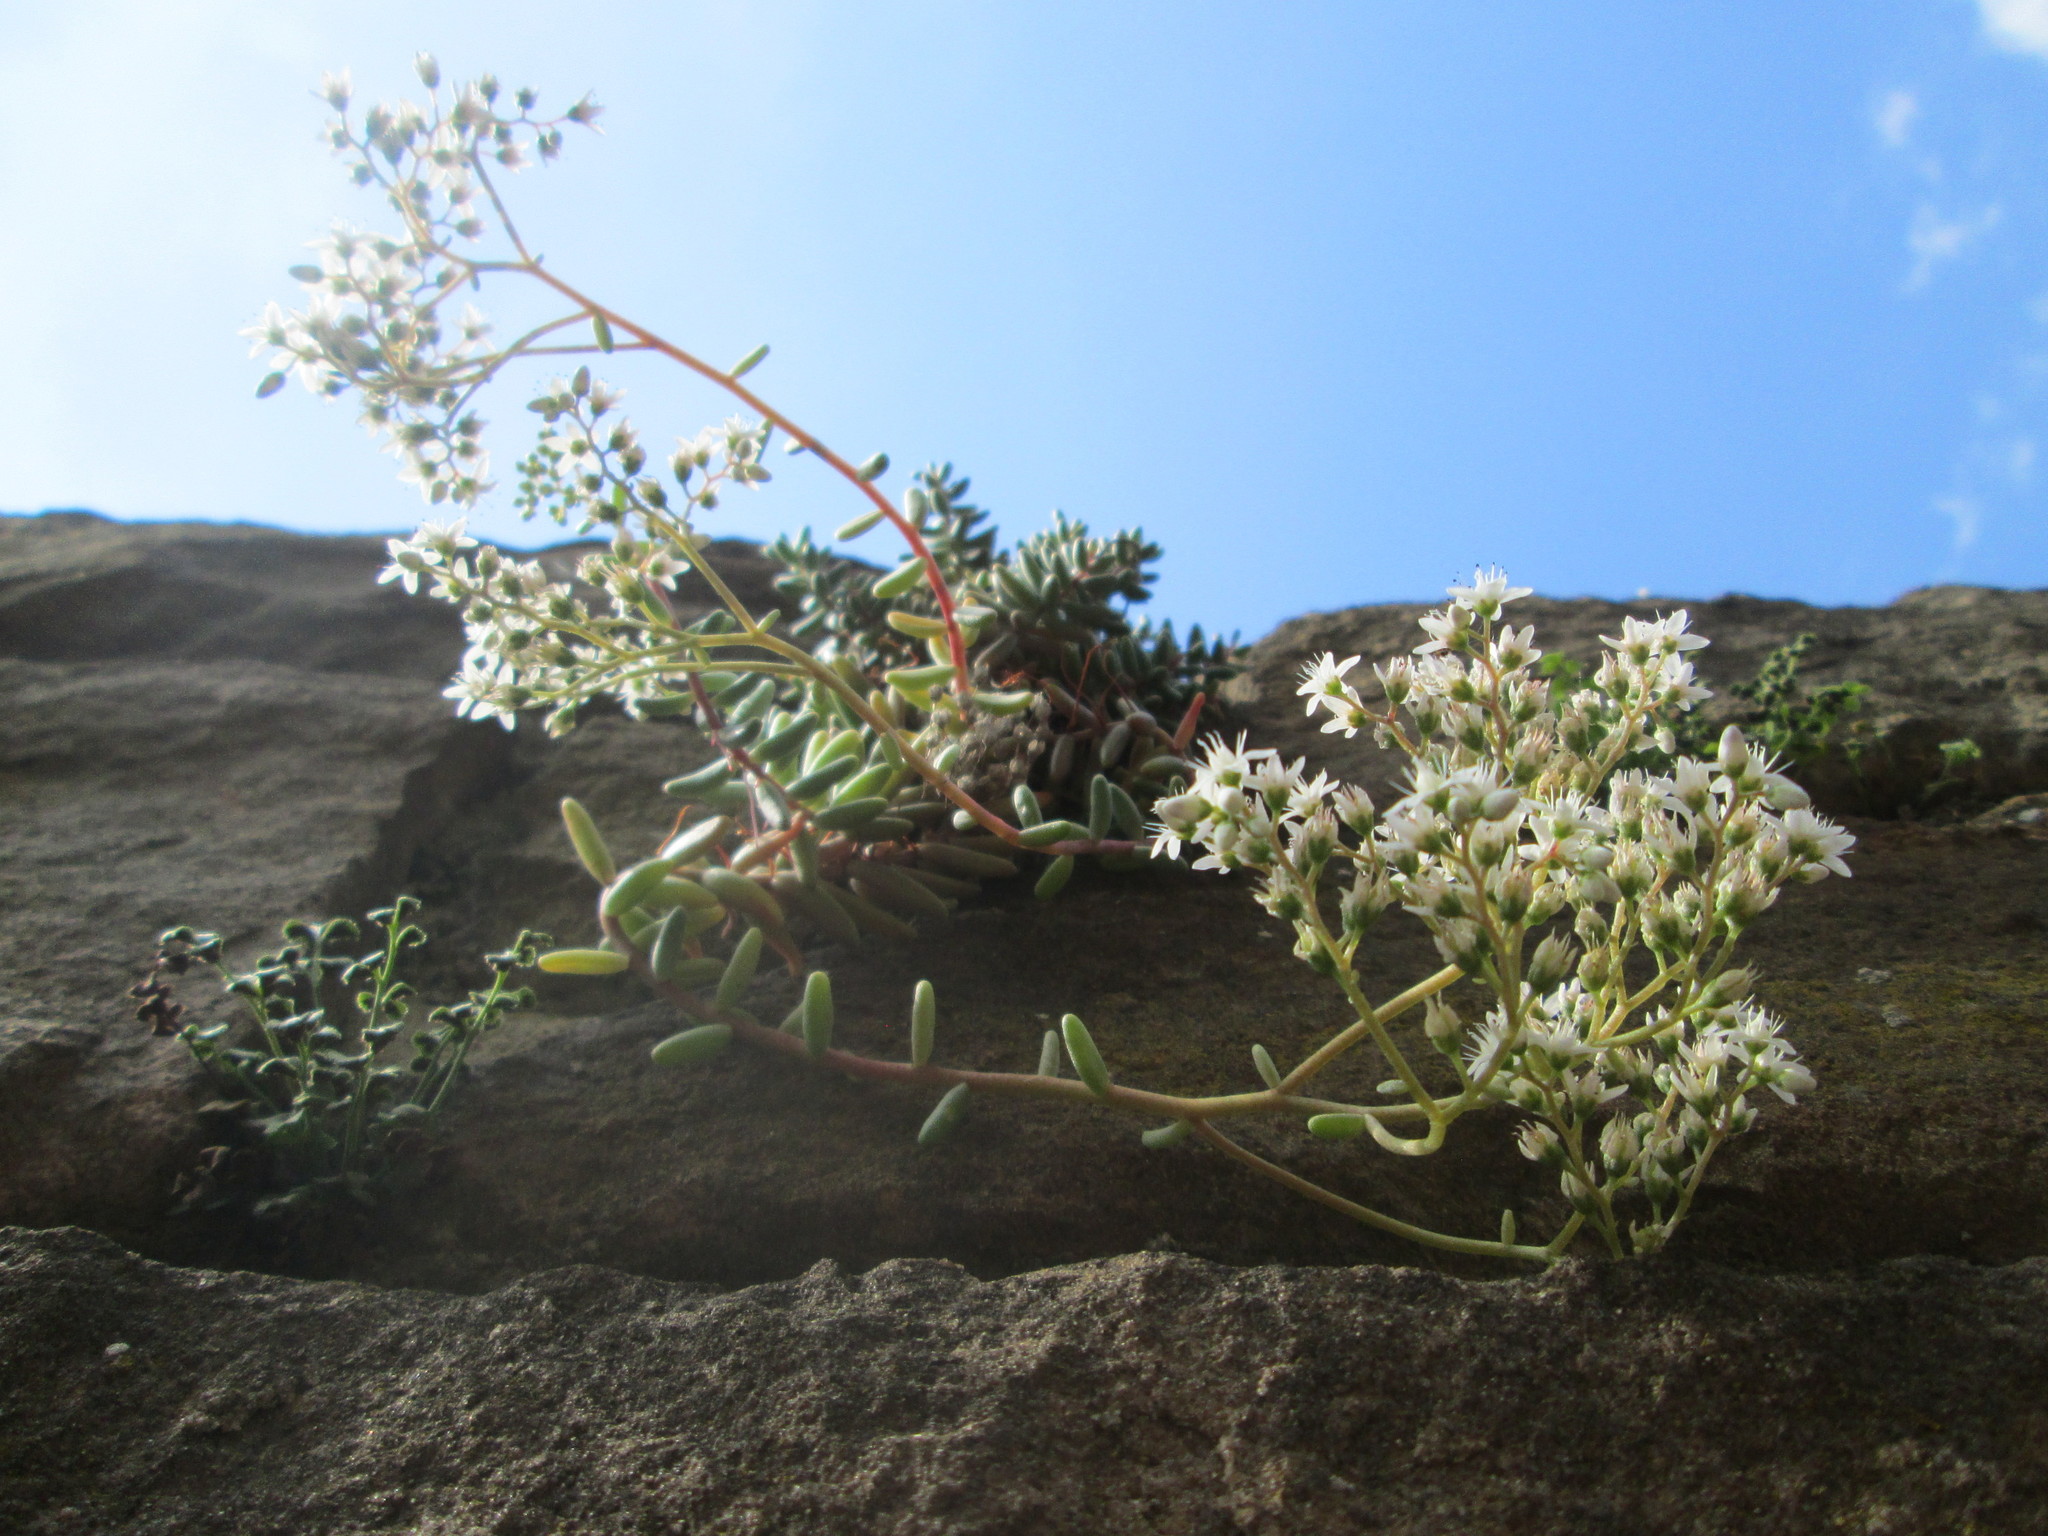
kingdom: Plantae
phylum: Tracheophyta
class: Magnoliopsida
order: Saxifragales
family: Crassulaceae
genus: Sedum
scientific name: Sedum album
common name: White stonecrop
